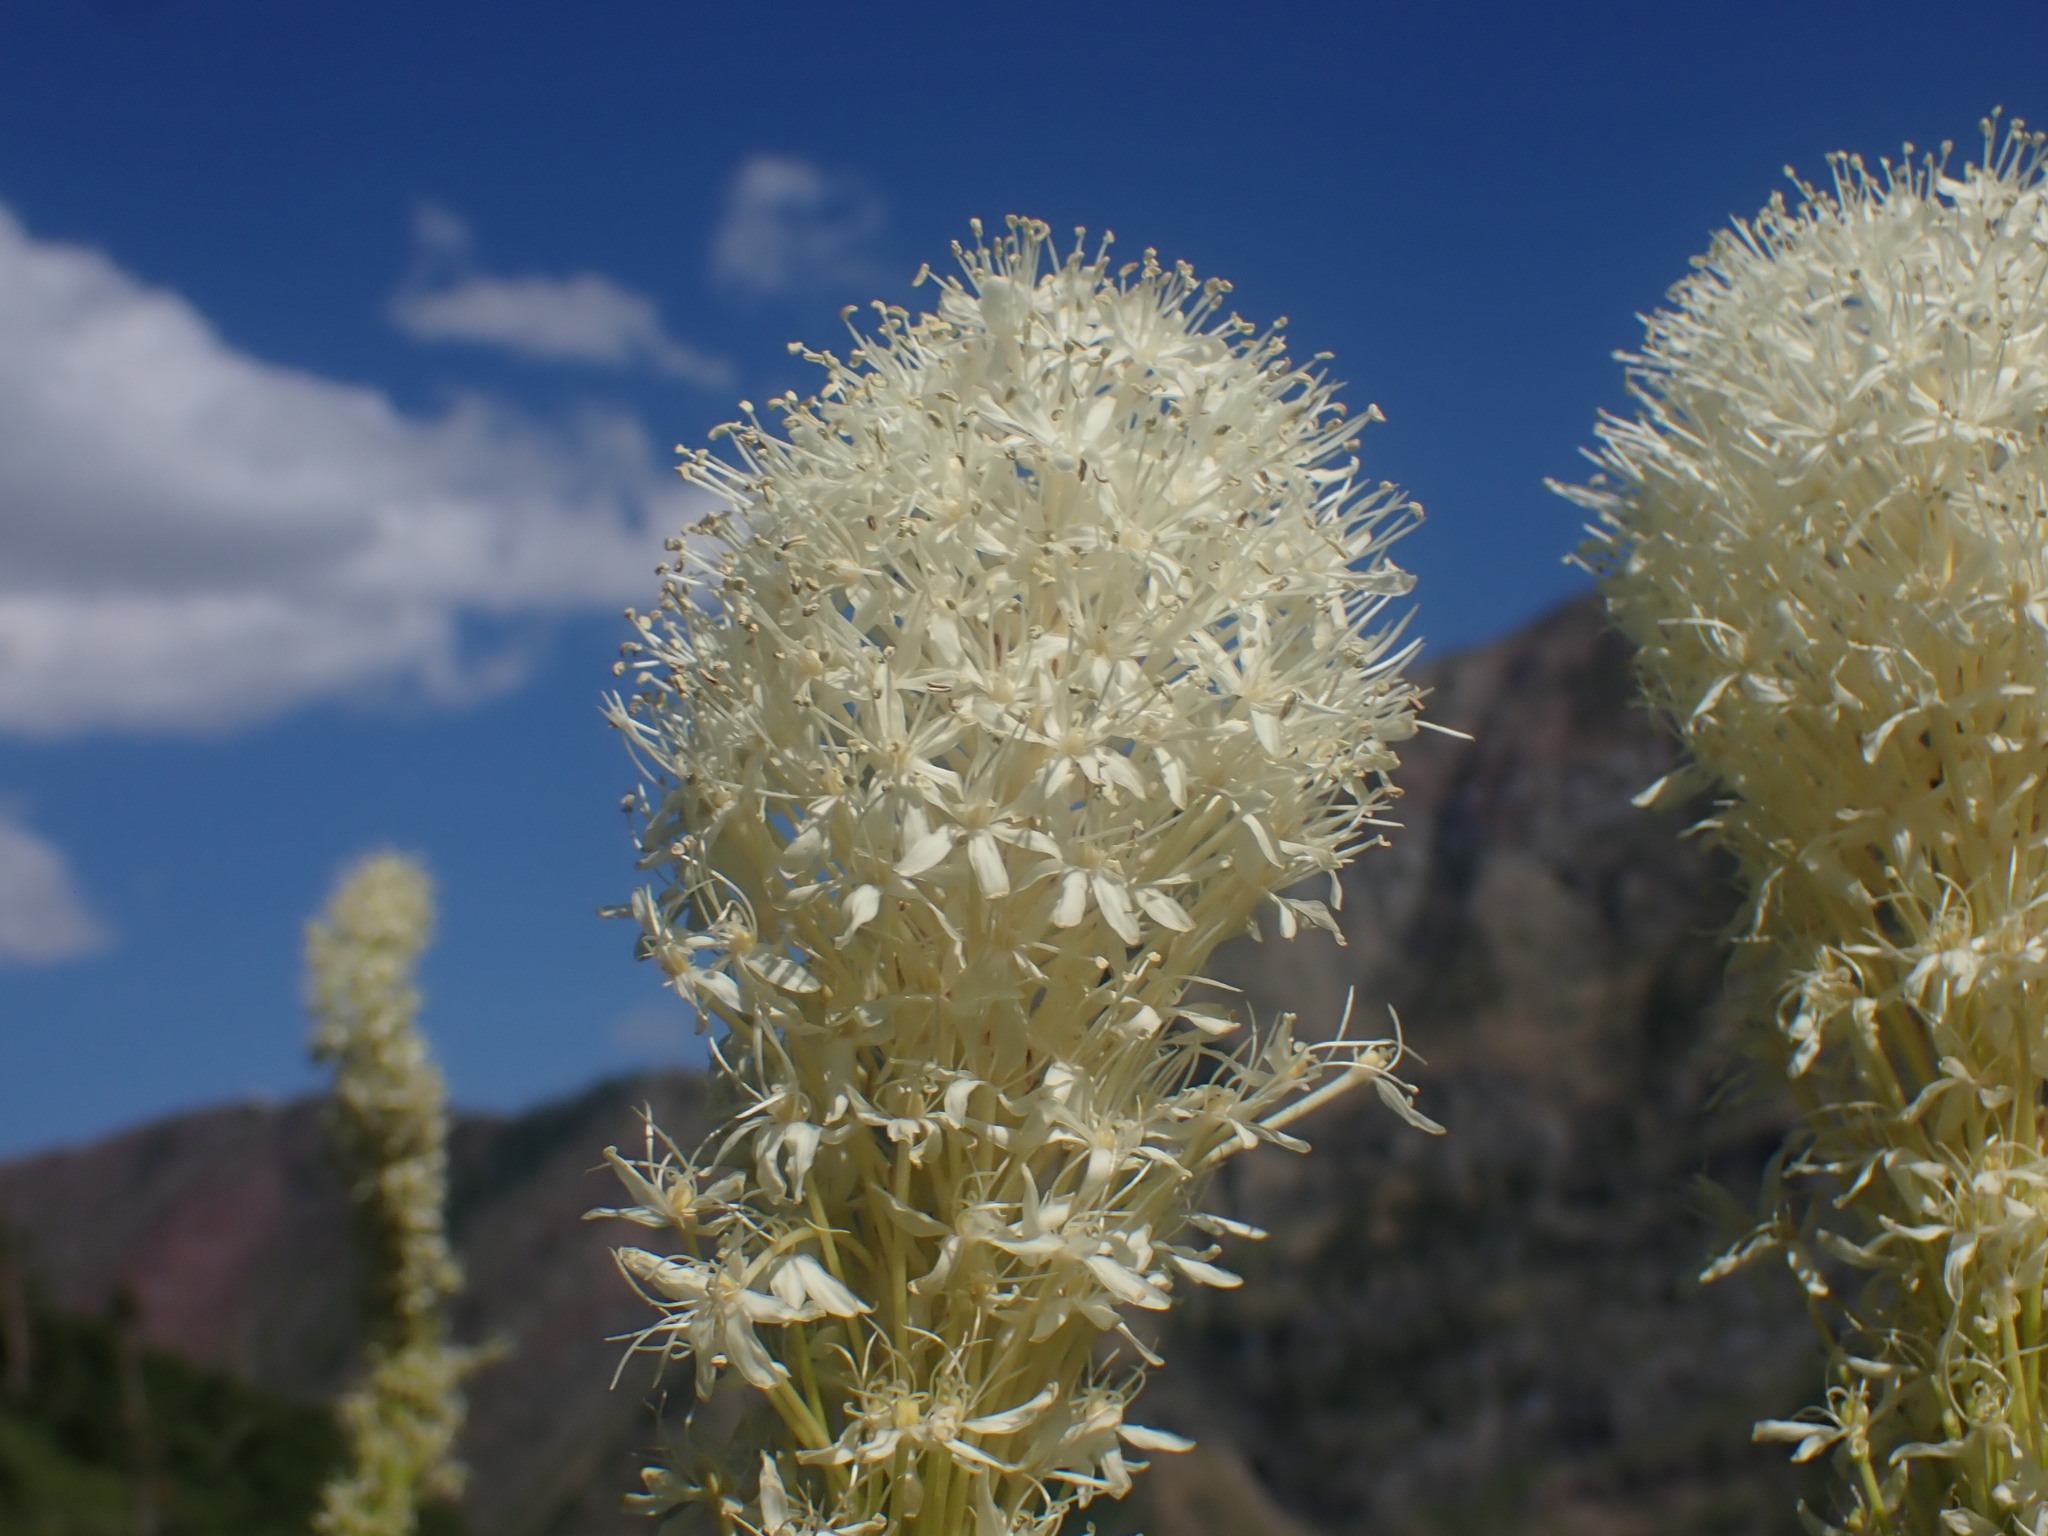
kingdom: Plantae
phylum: Tracheophyta
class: Liliopsida
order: Liliales
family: Melanthiaceae
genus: Xerophyllum
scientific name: Xerophyllum tenax
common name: Bear-grass
